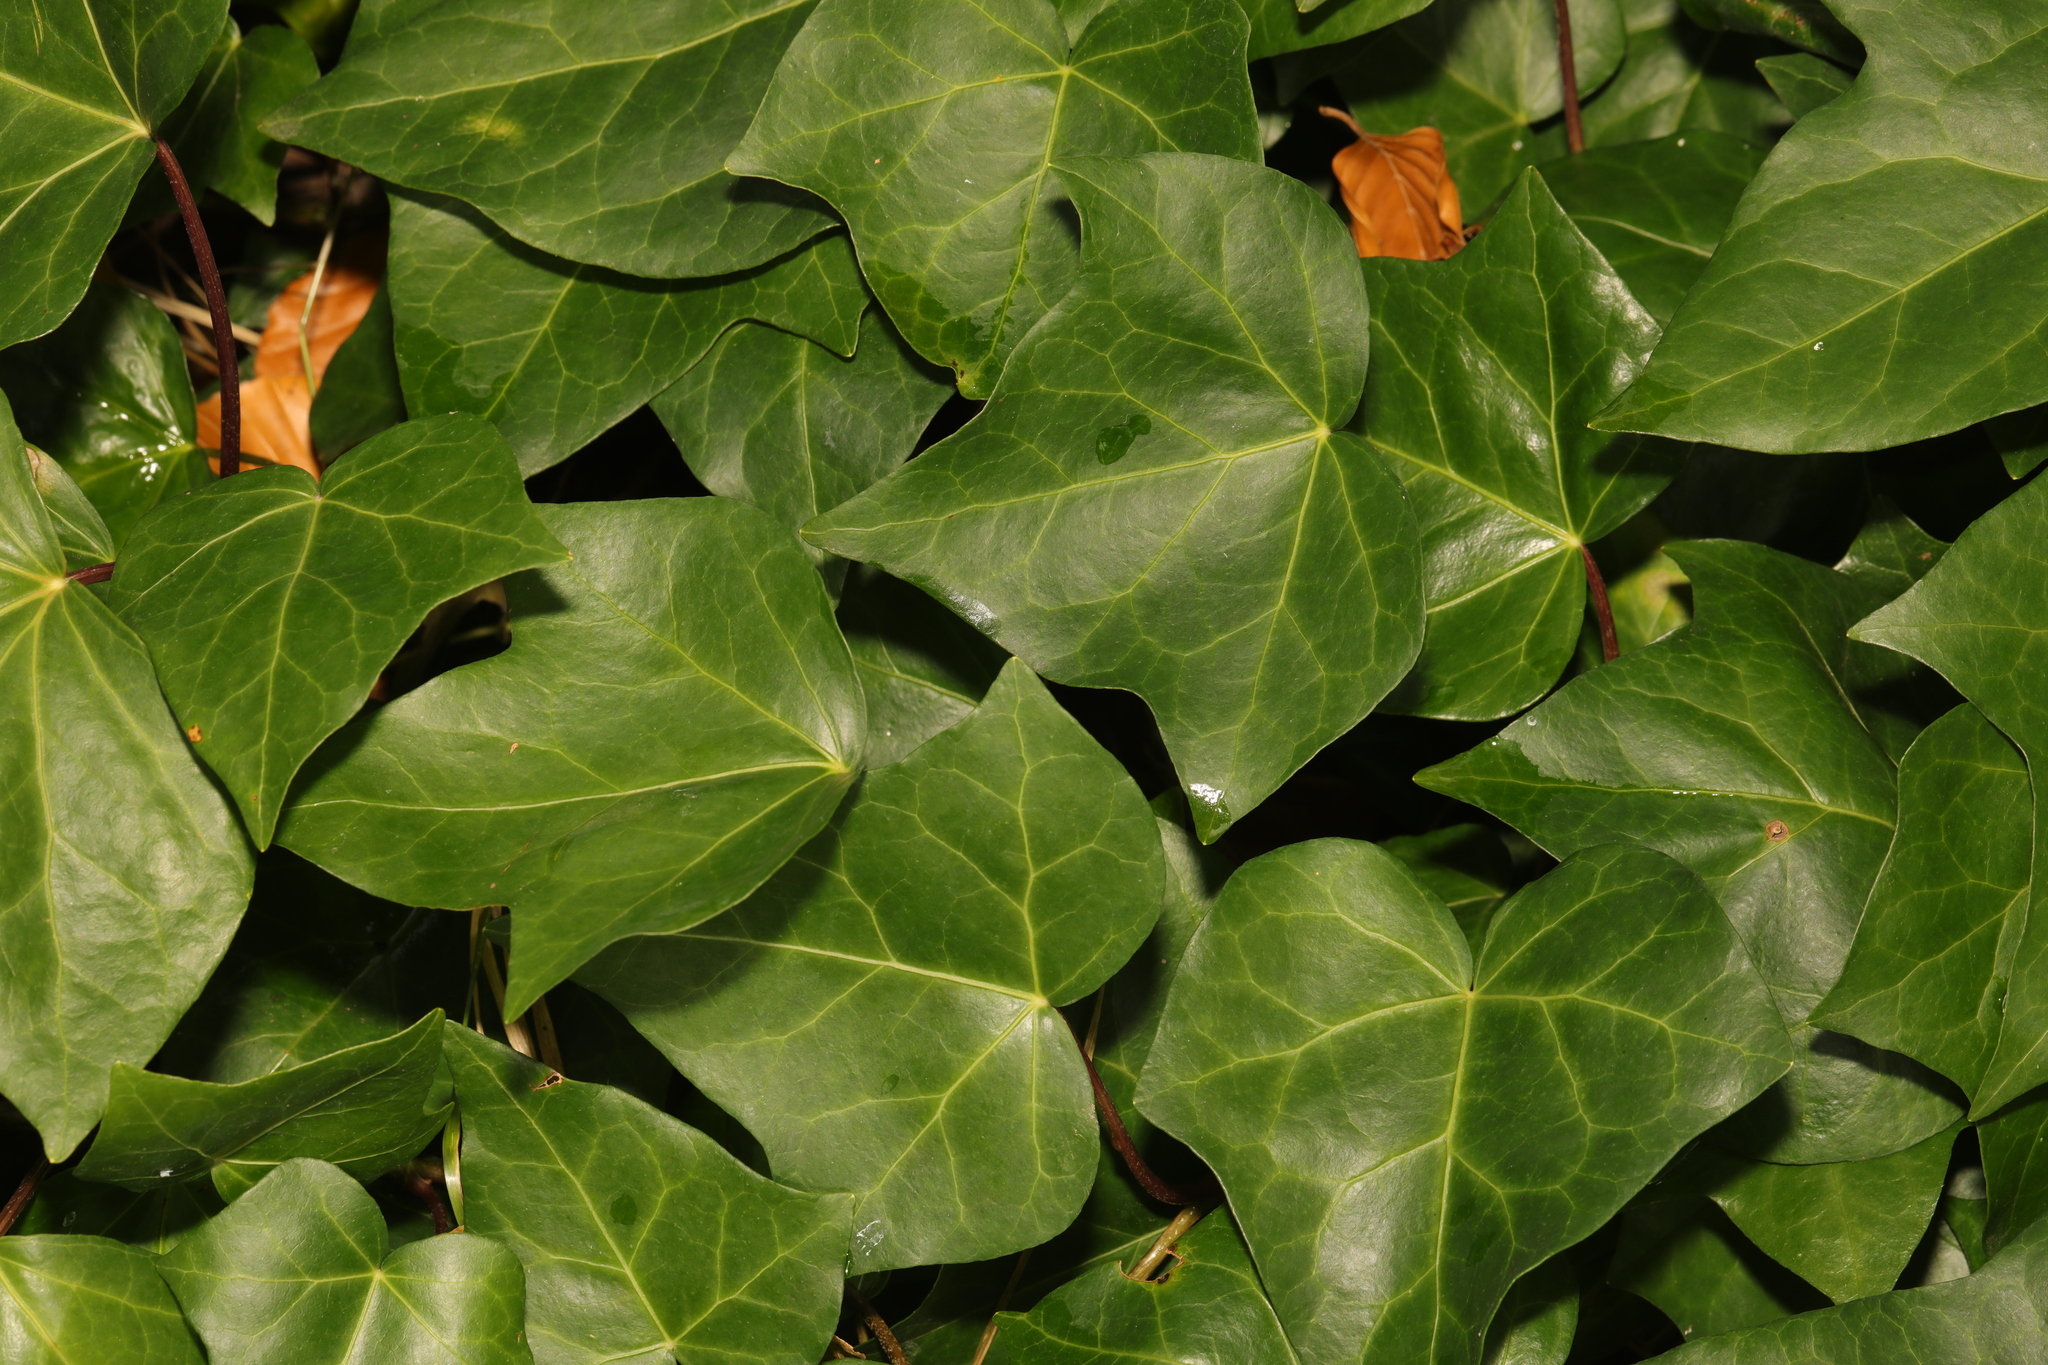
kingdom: Plantae
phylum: Tracheophyta
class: Magnoliopsida
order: Apiales
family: Araliaceae
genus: Hedera
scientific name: Hedera helix
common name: Ivy
